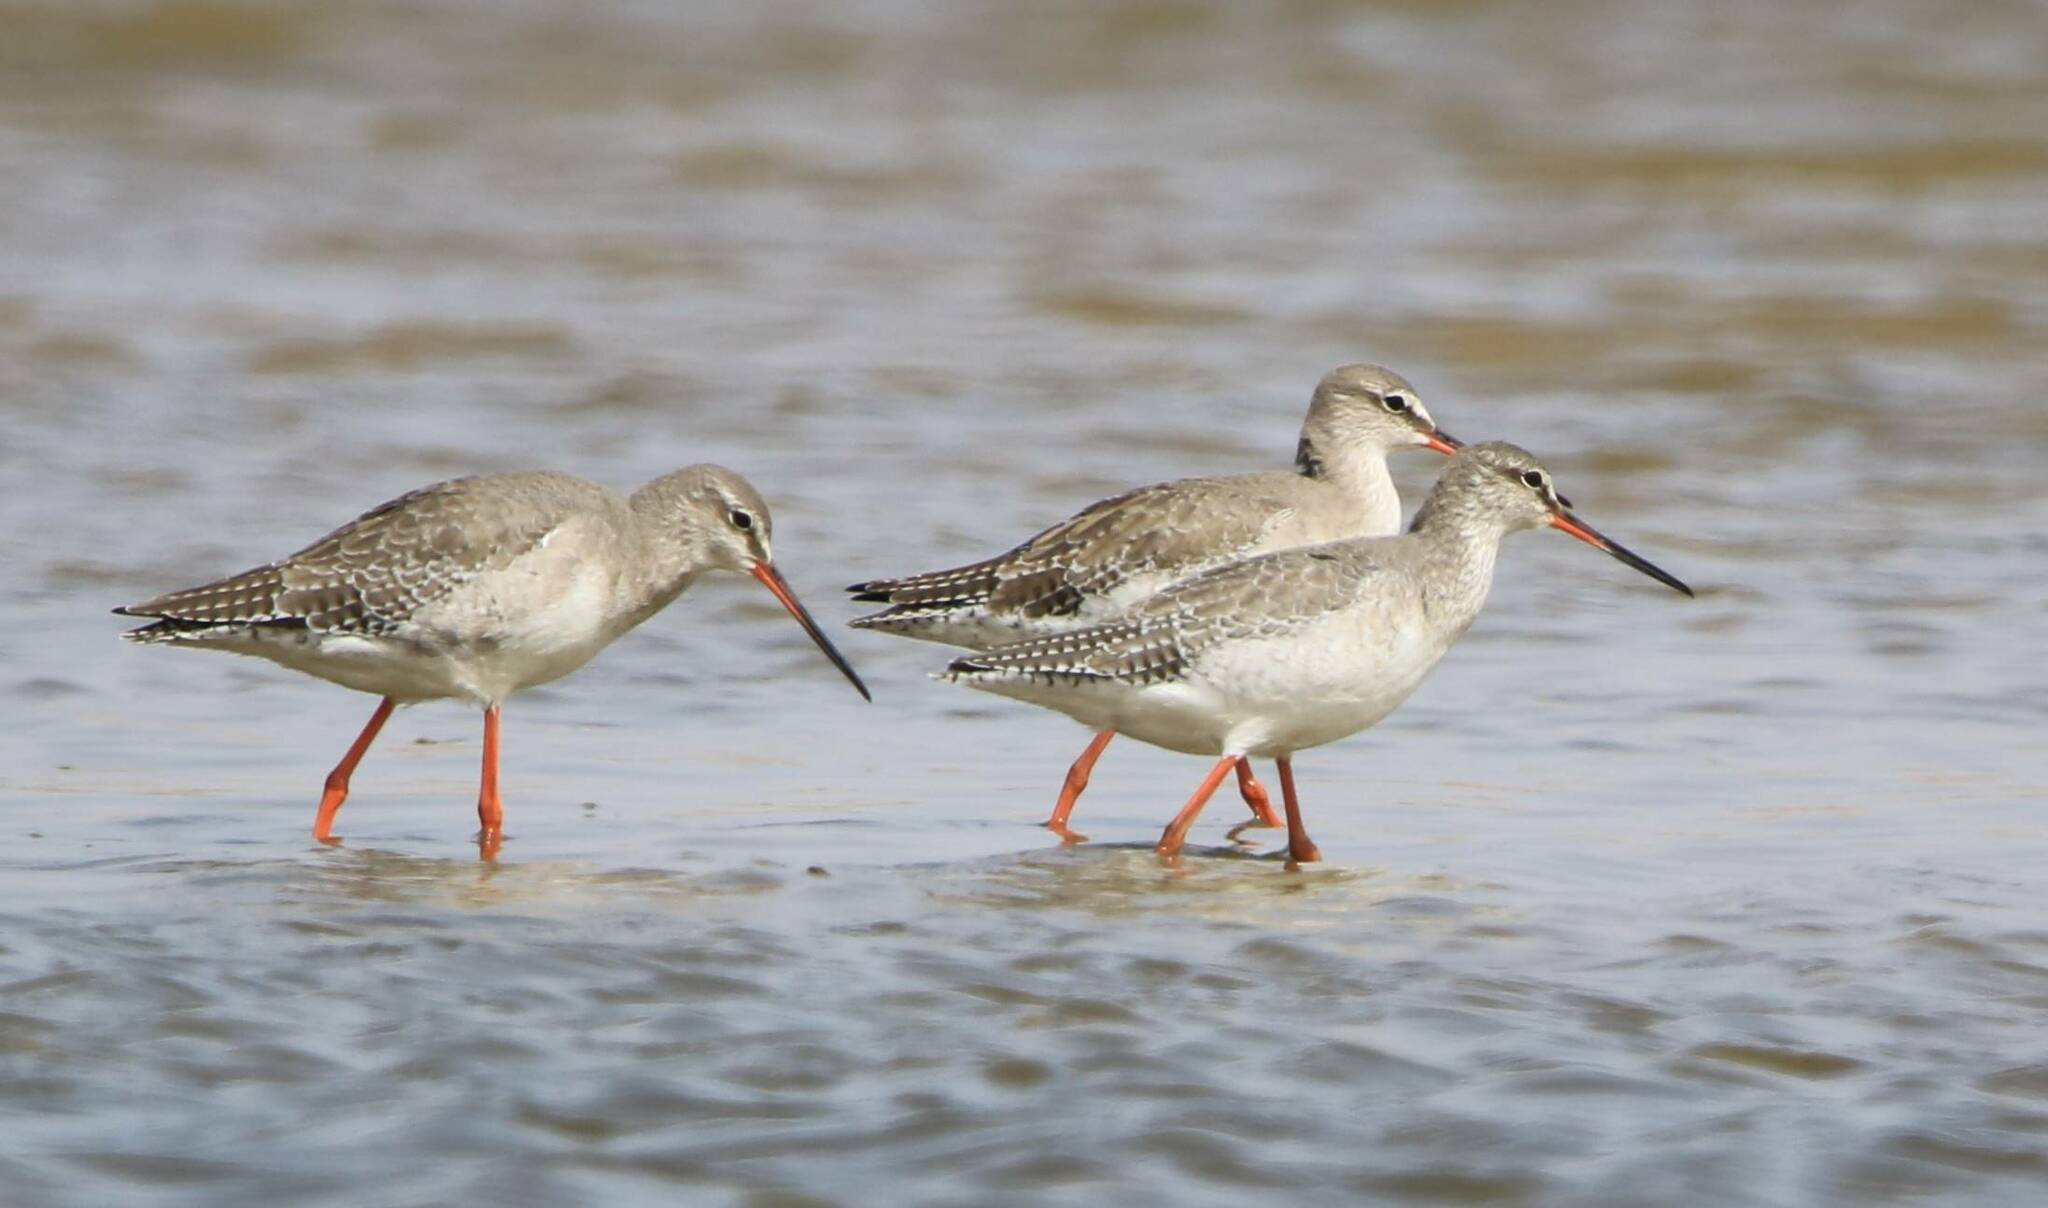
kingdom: Animalia
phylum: Chordata
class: Aves
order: Charadriiformes
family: Scolopacidae
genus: Tringa
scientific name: Tringa erythropus
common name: Spotted redshank
